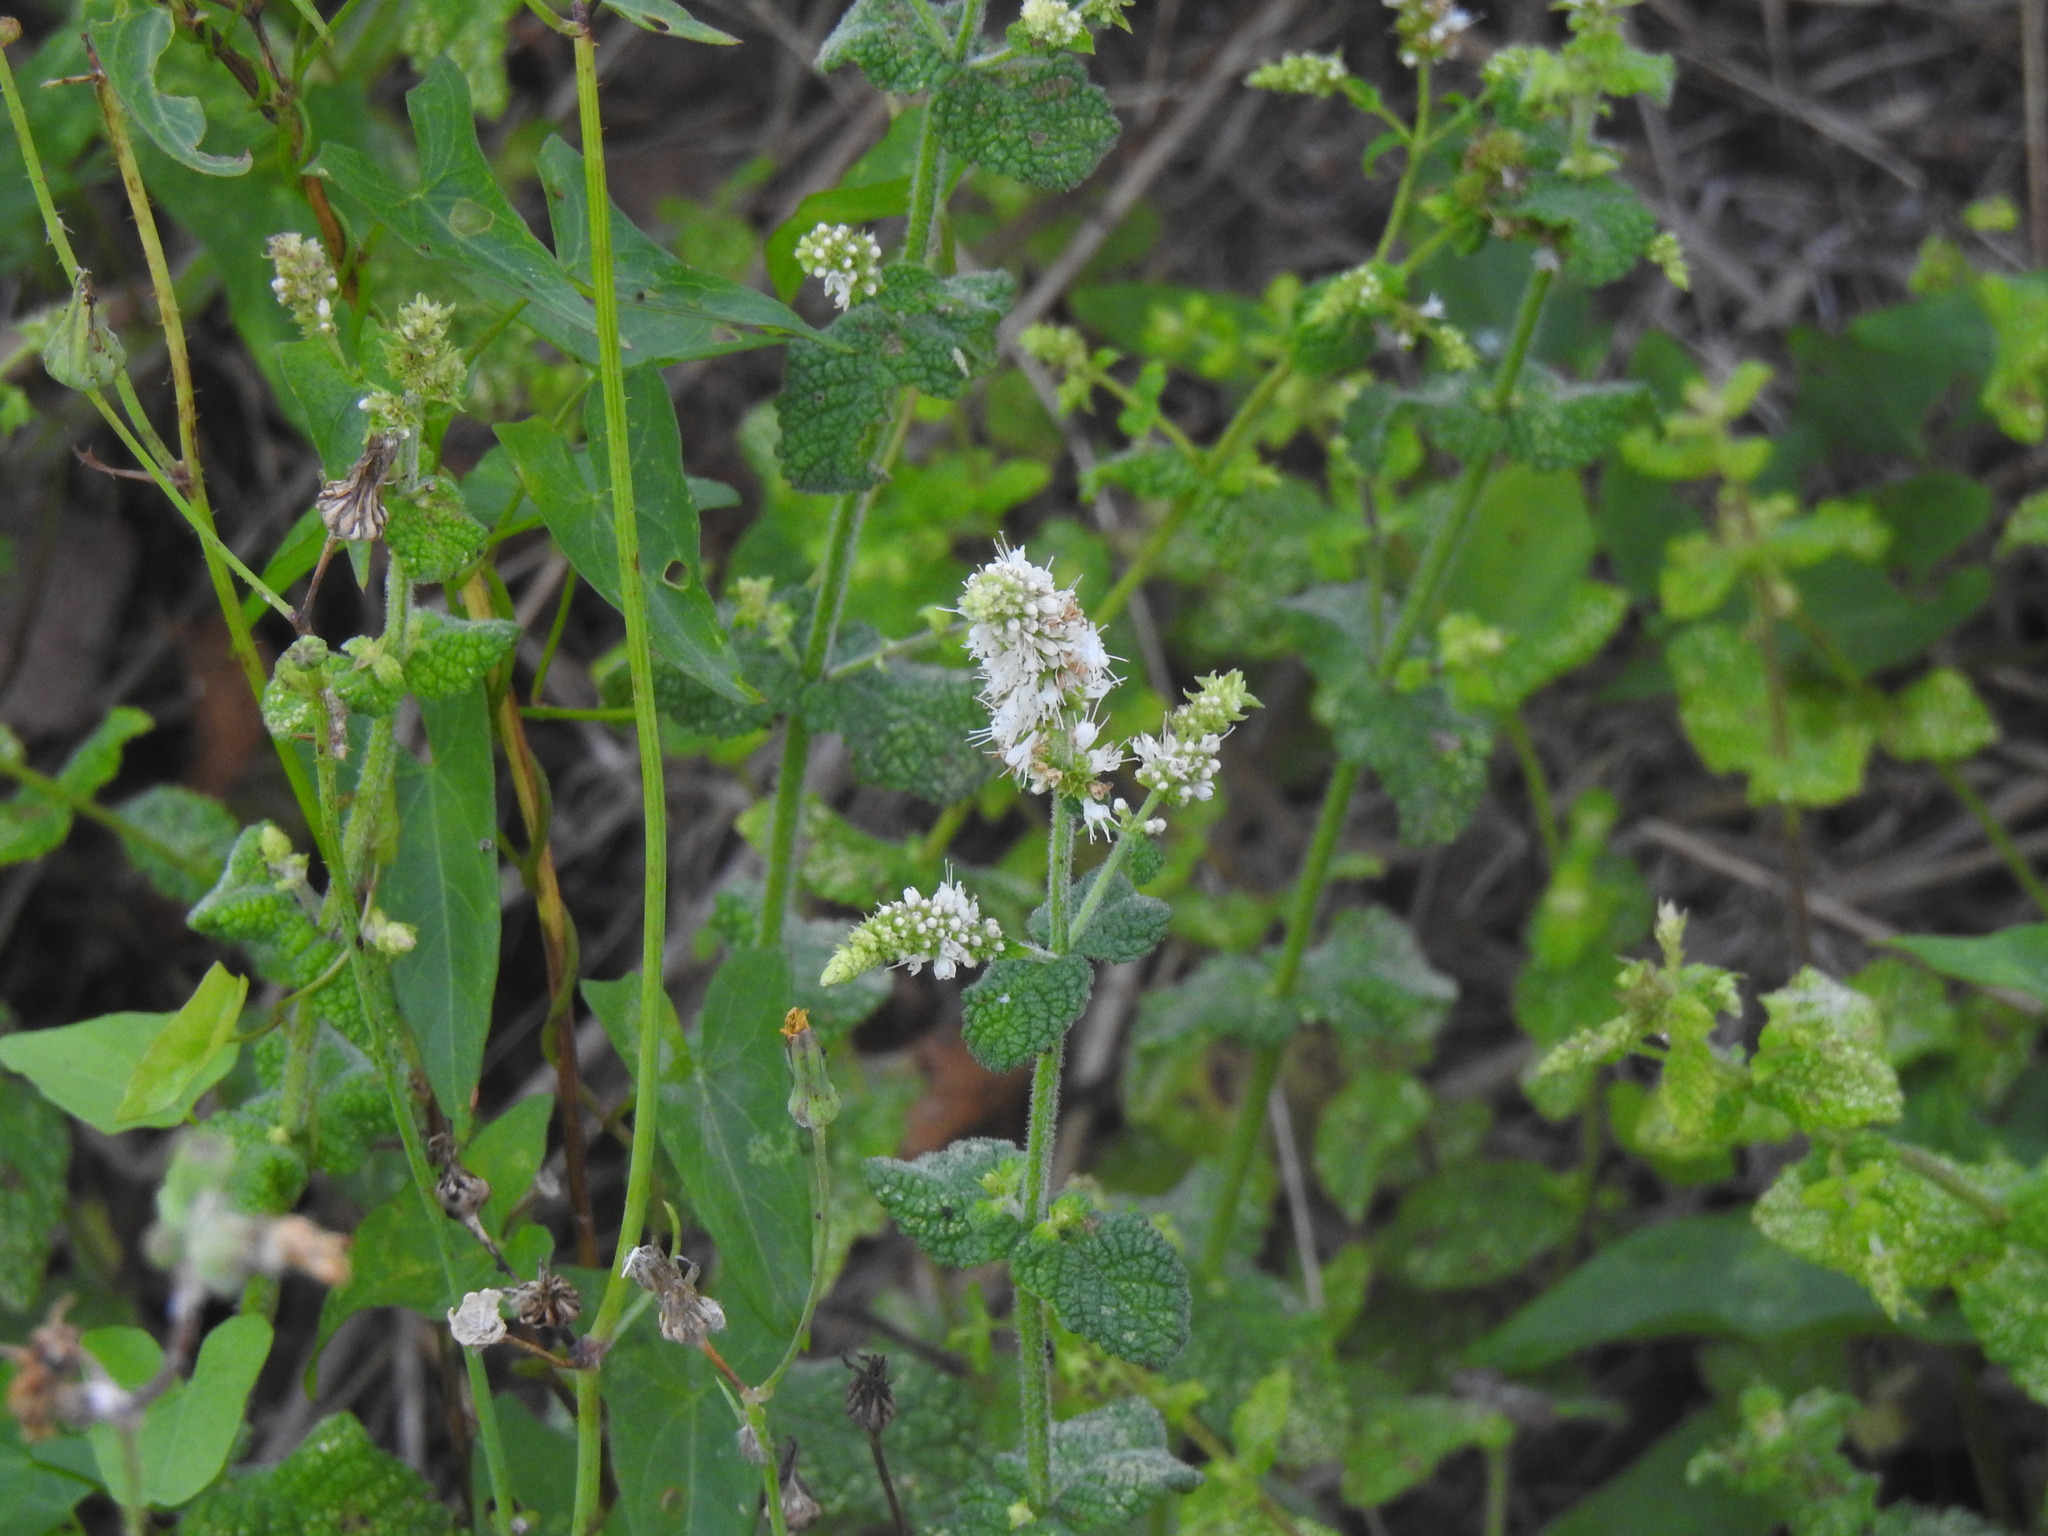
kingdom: Plantae
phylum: Tracheophyta
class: Magnoliopsida
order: Lamiales
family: Lamiaceae
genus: Mentha
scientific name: Mentha suaveolens
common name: Apple mint
